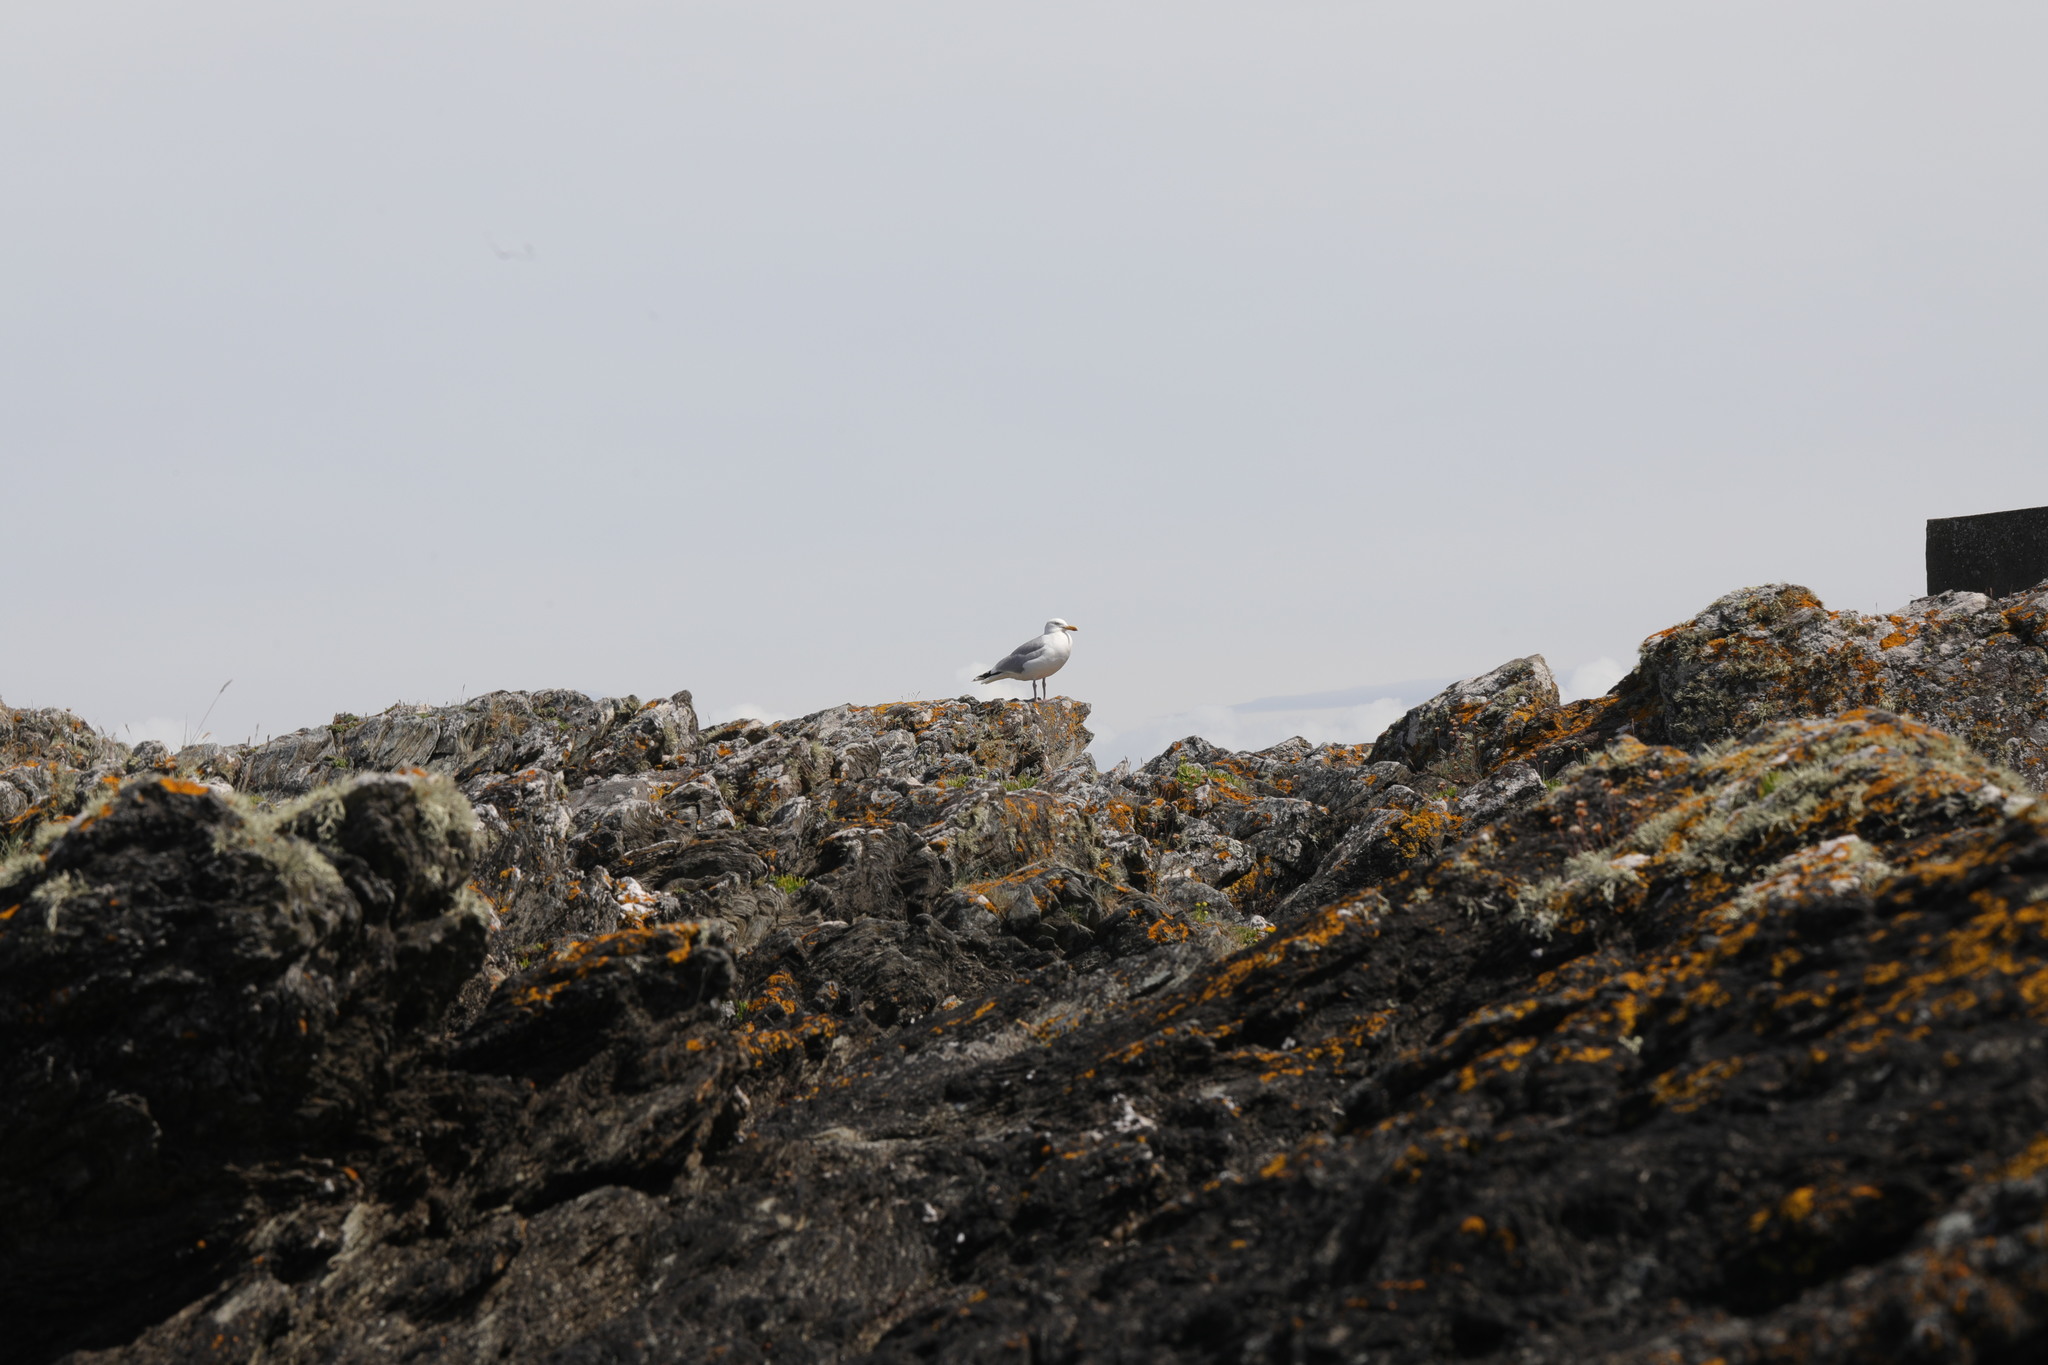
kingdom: Animalia
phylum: Chordata
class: Aves
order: Charadriiformes
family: Laridae
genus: Larus
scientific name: Larus argentatus
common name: Herring gull
